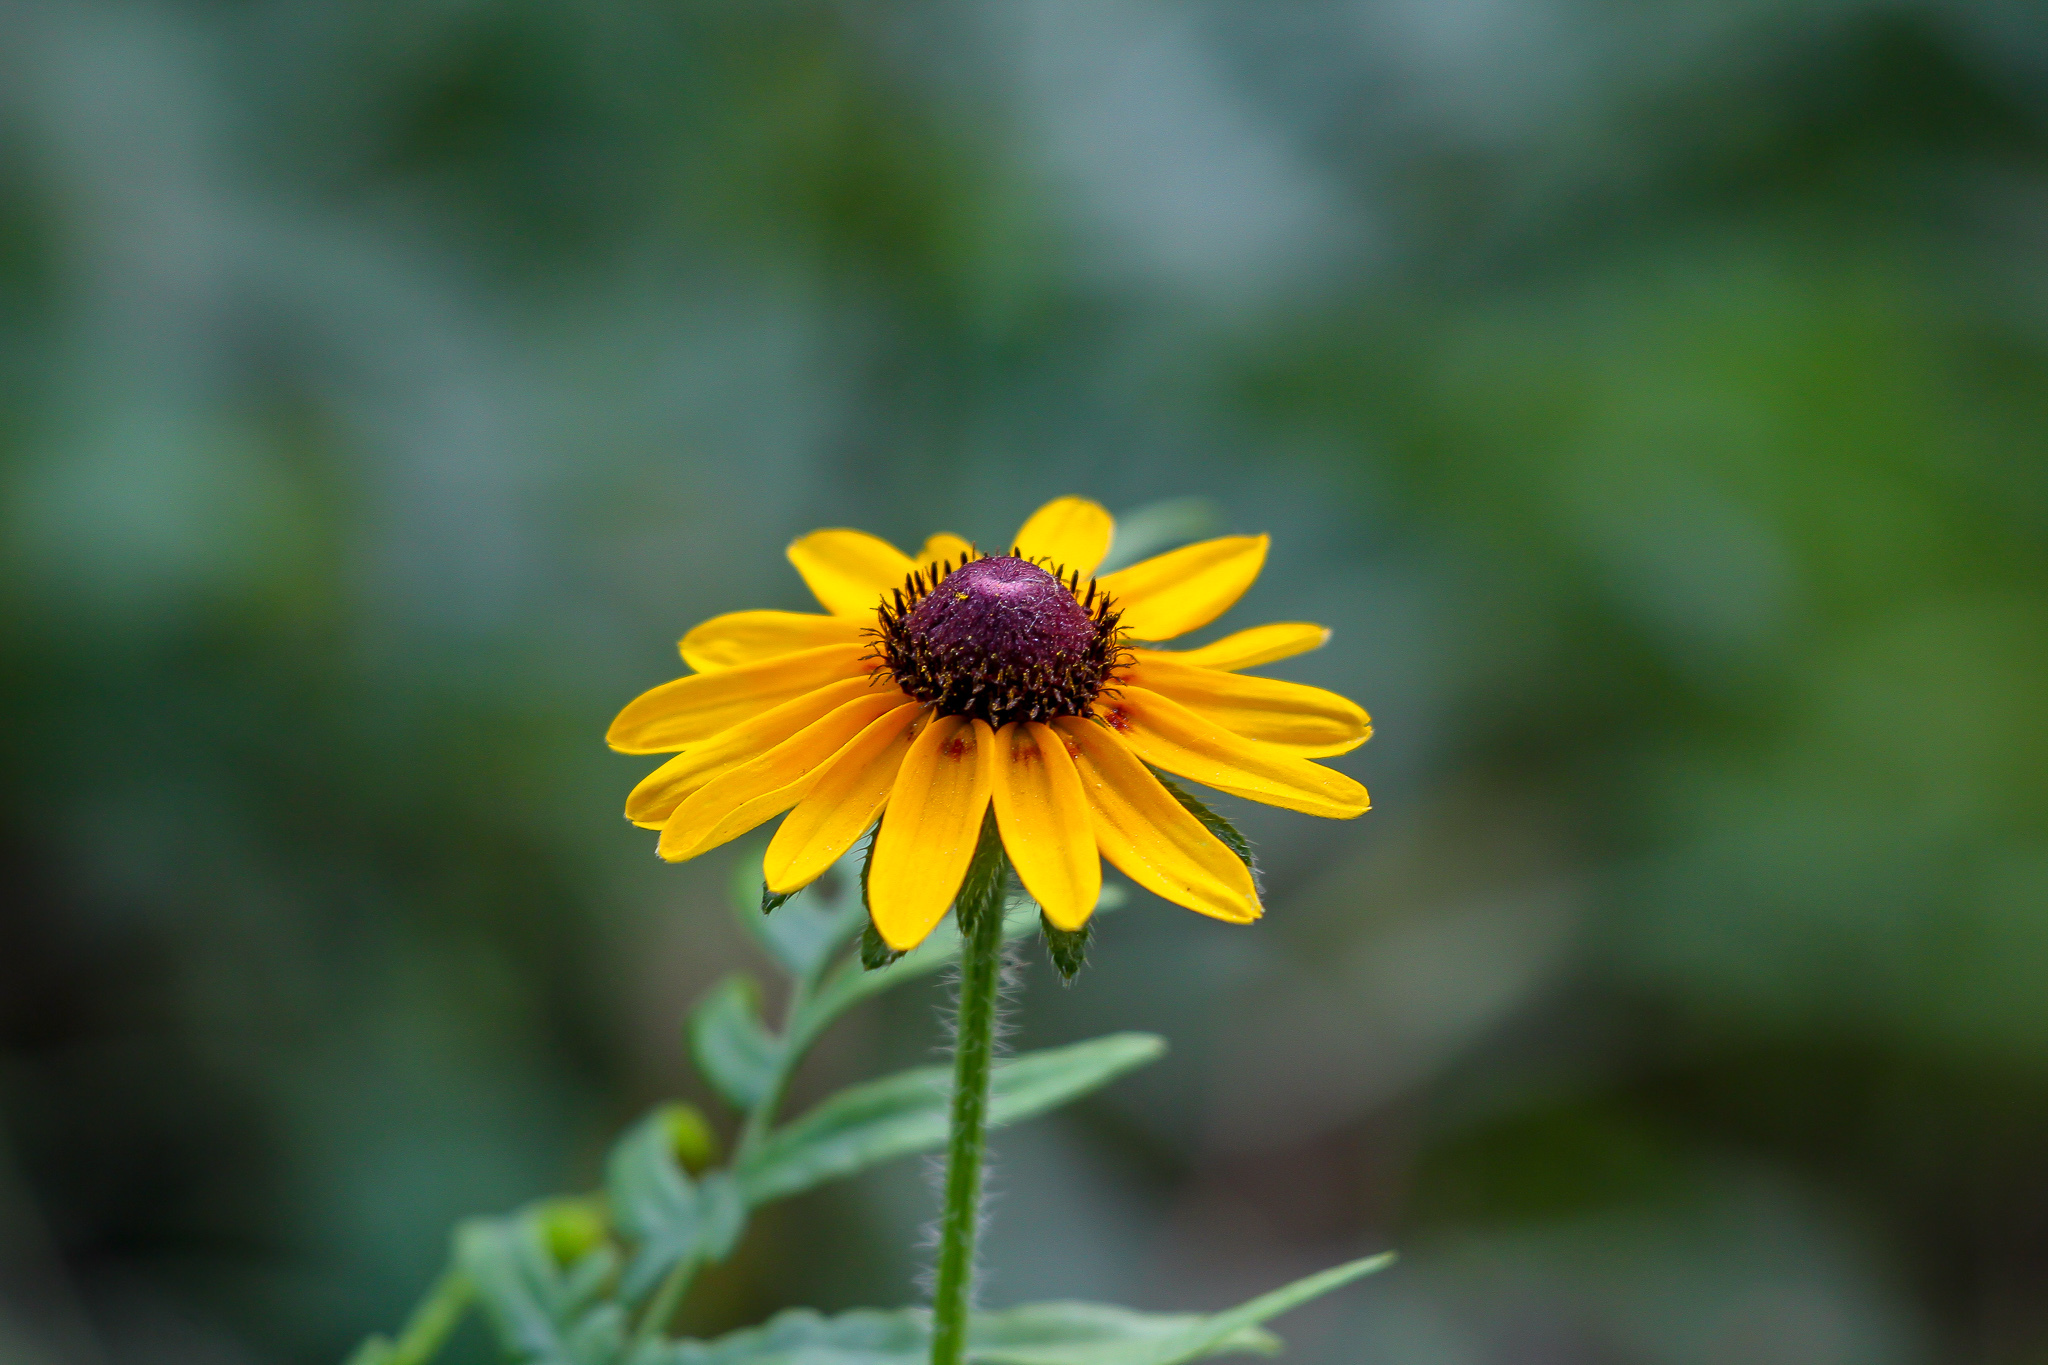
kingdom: Plantae
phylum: Tracheophyta
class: Magnoliopsida
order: Asterales
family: Asteraceae
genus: Rudbeckia
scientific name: Rudbeckia hirta
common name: Black-eyed-susan
